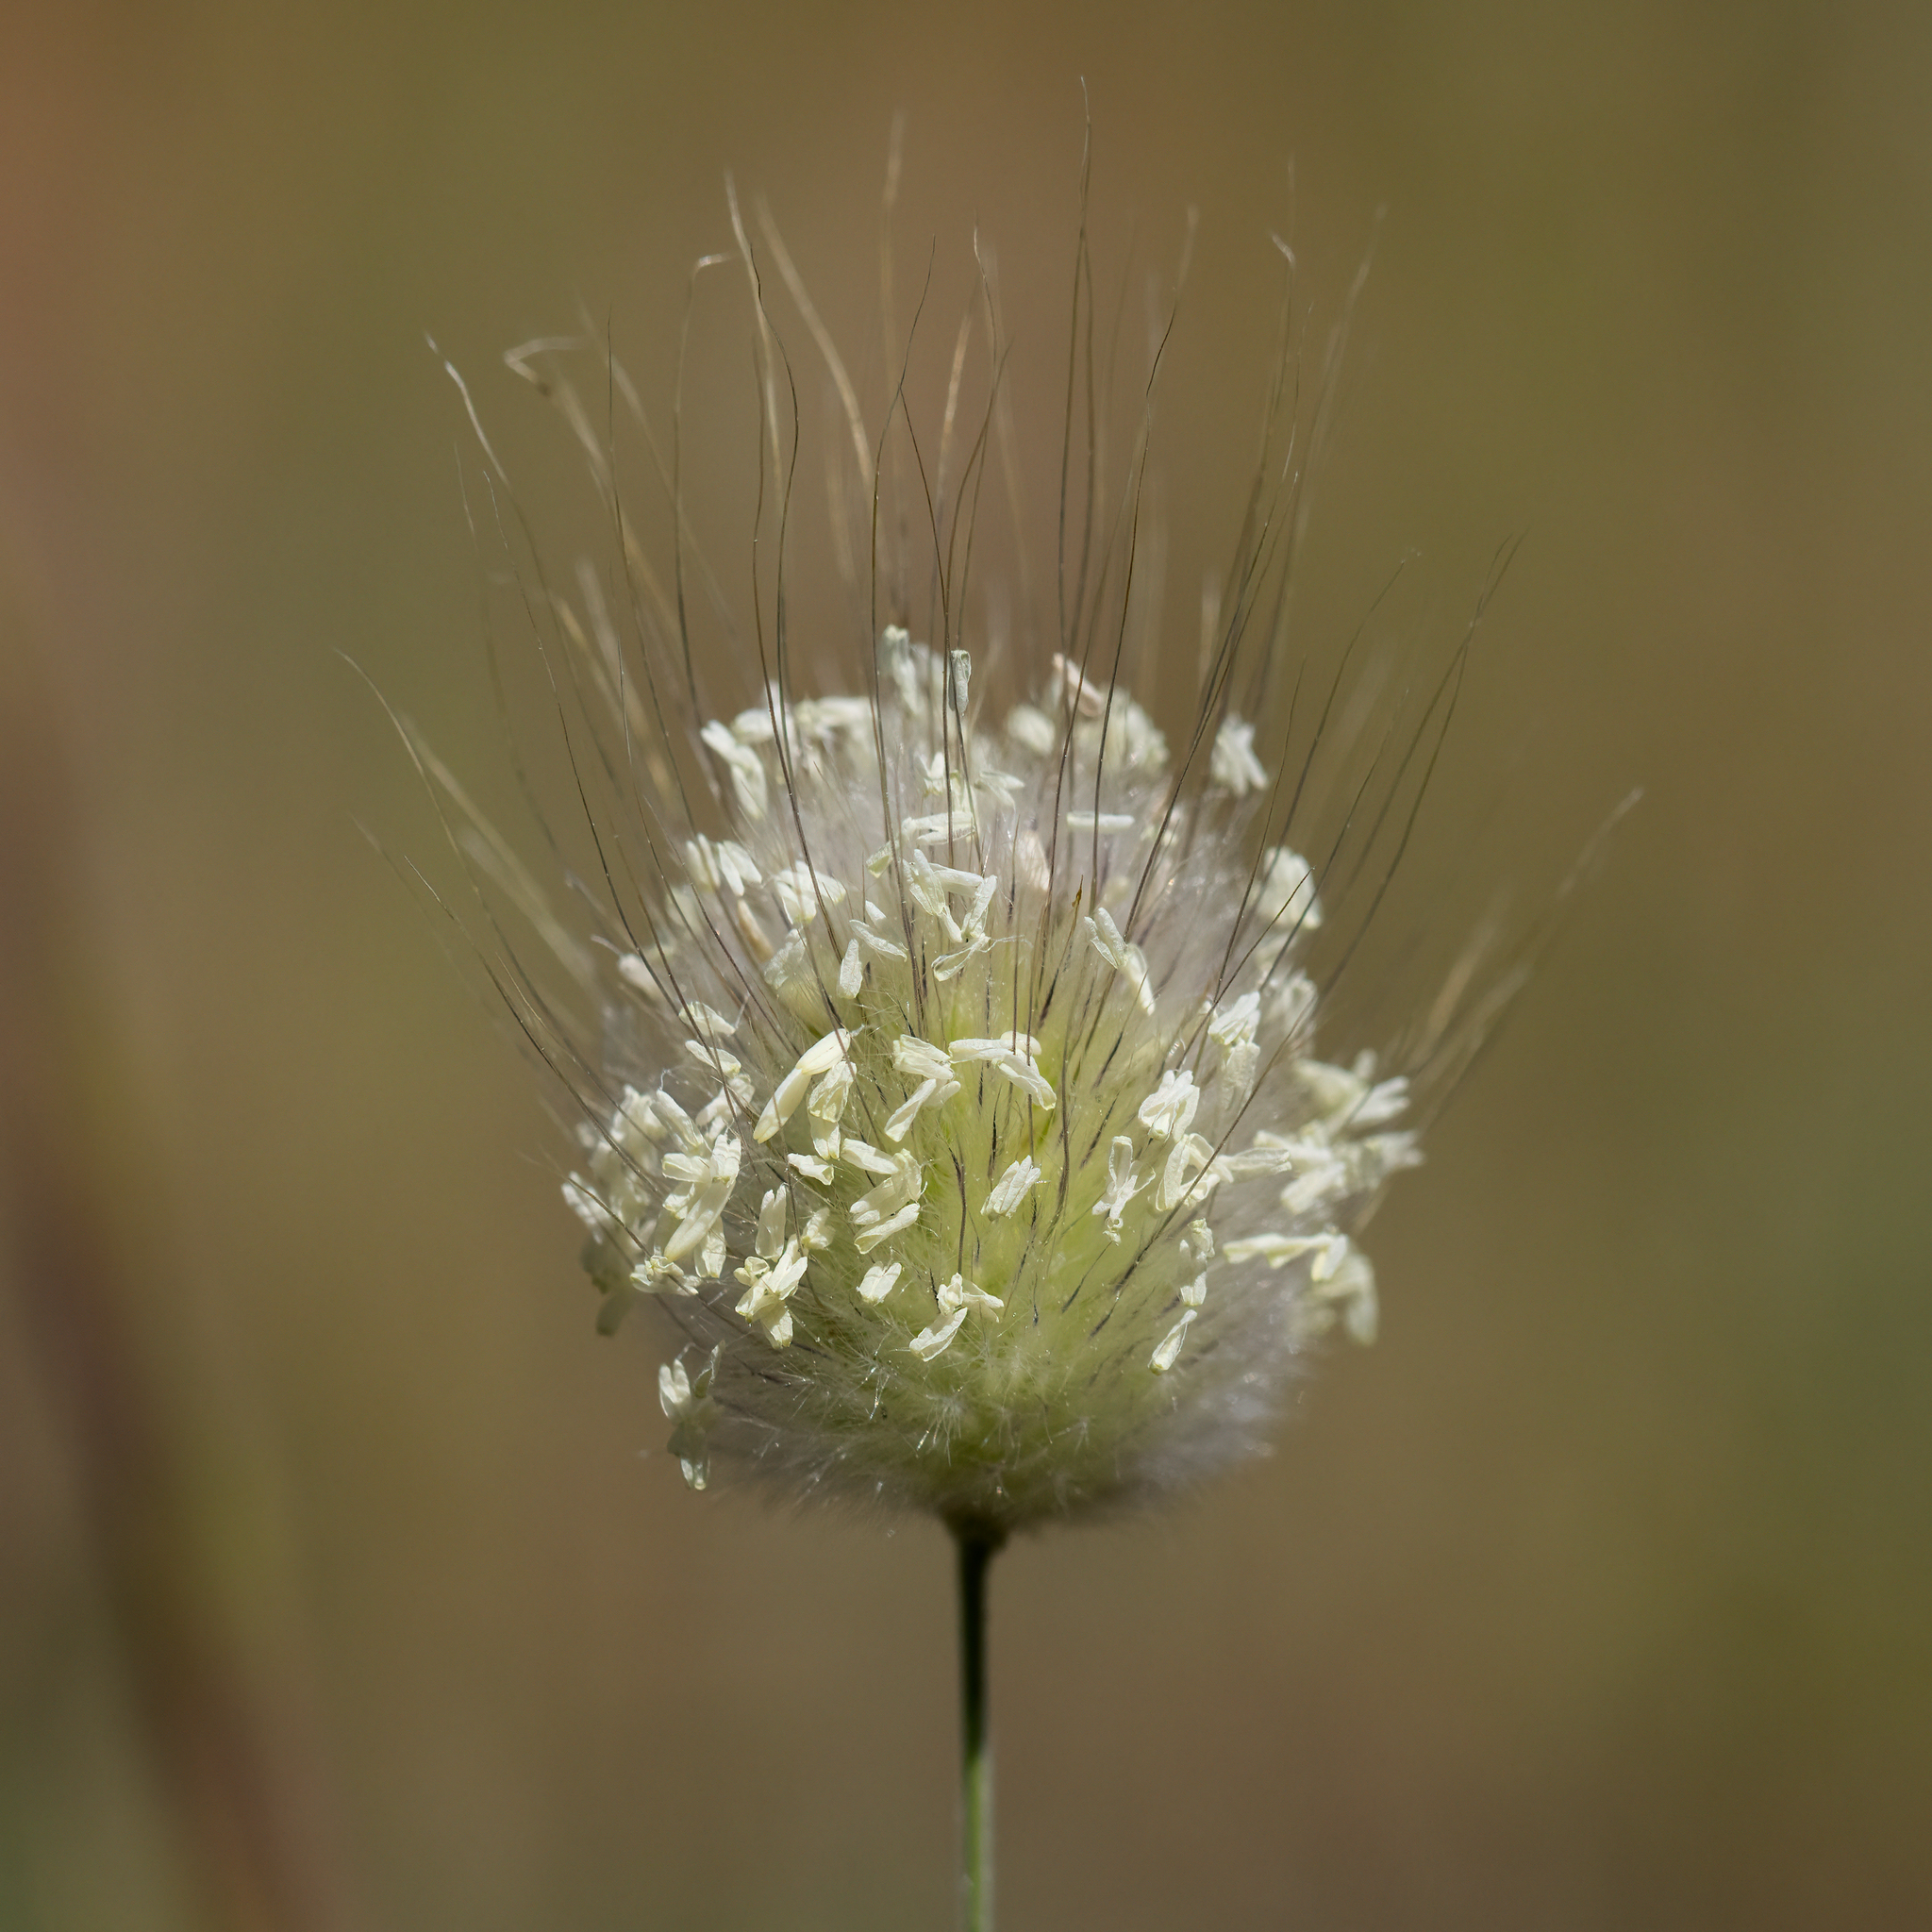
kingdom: Plantae
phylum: Tracheophyta
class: Liliopsida
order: Poales
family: Poaceae
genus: Lagurus
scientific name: Lagurus ovatus
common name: Hare's-tail
